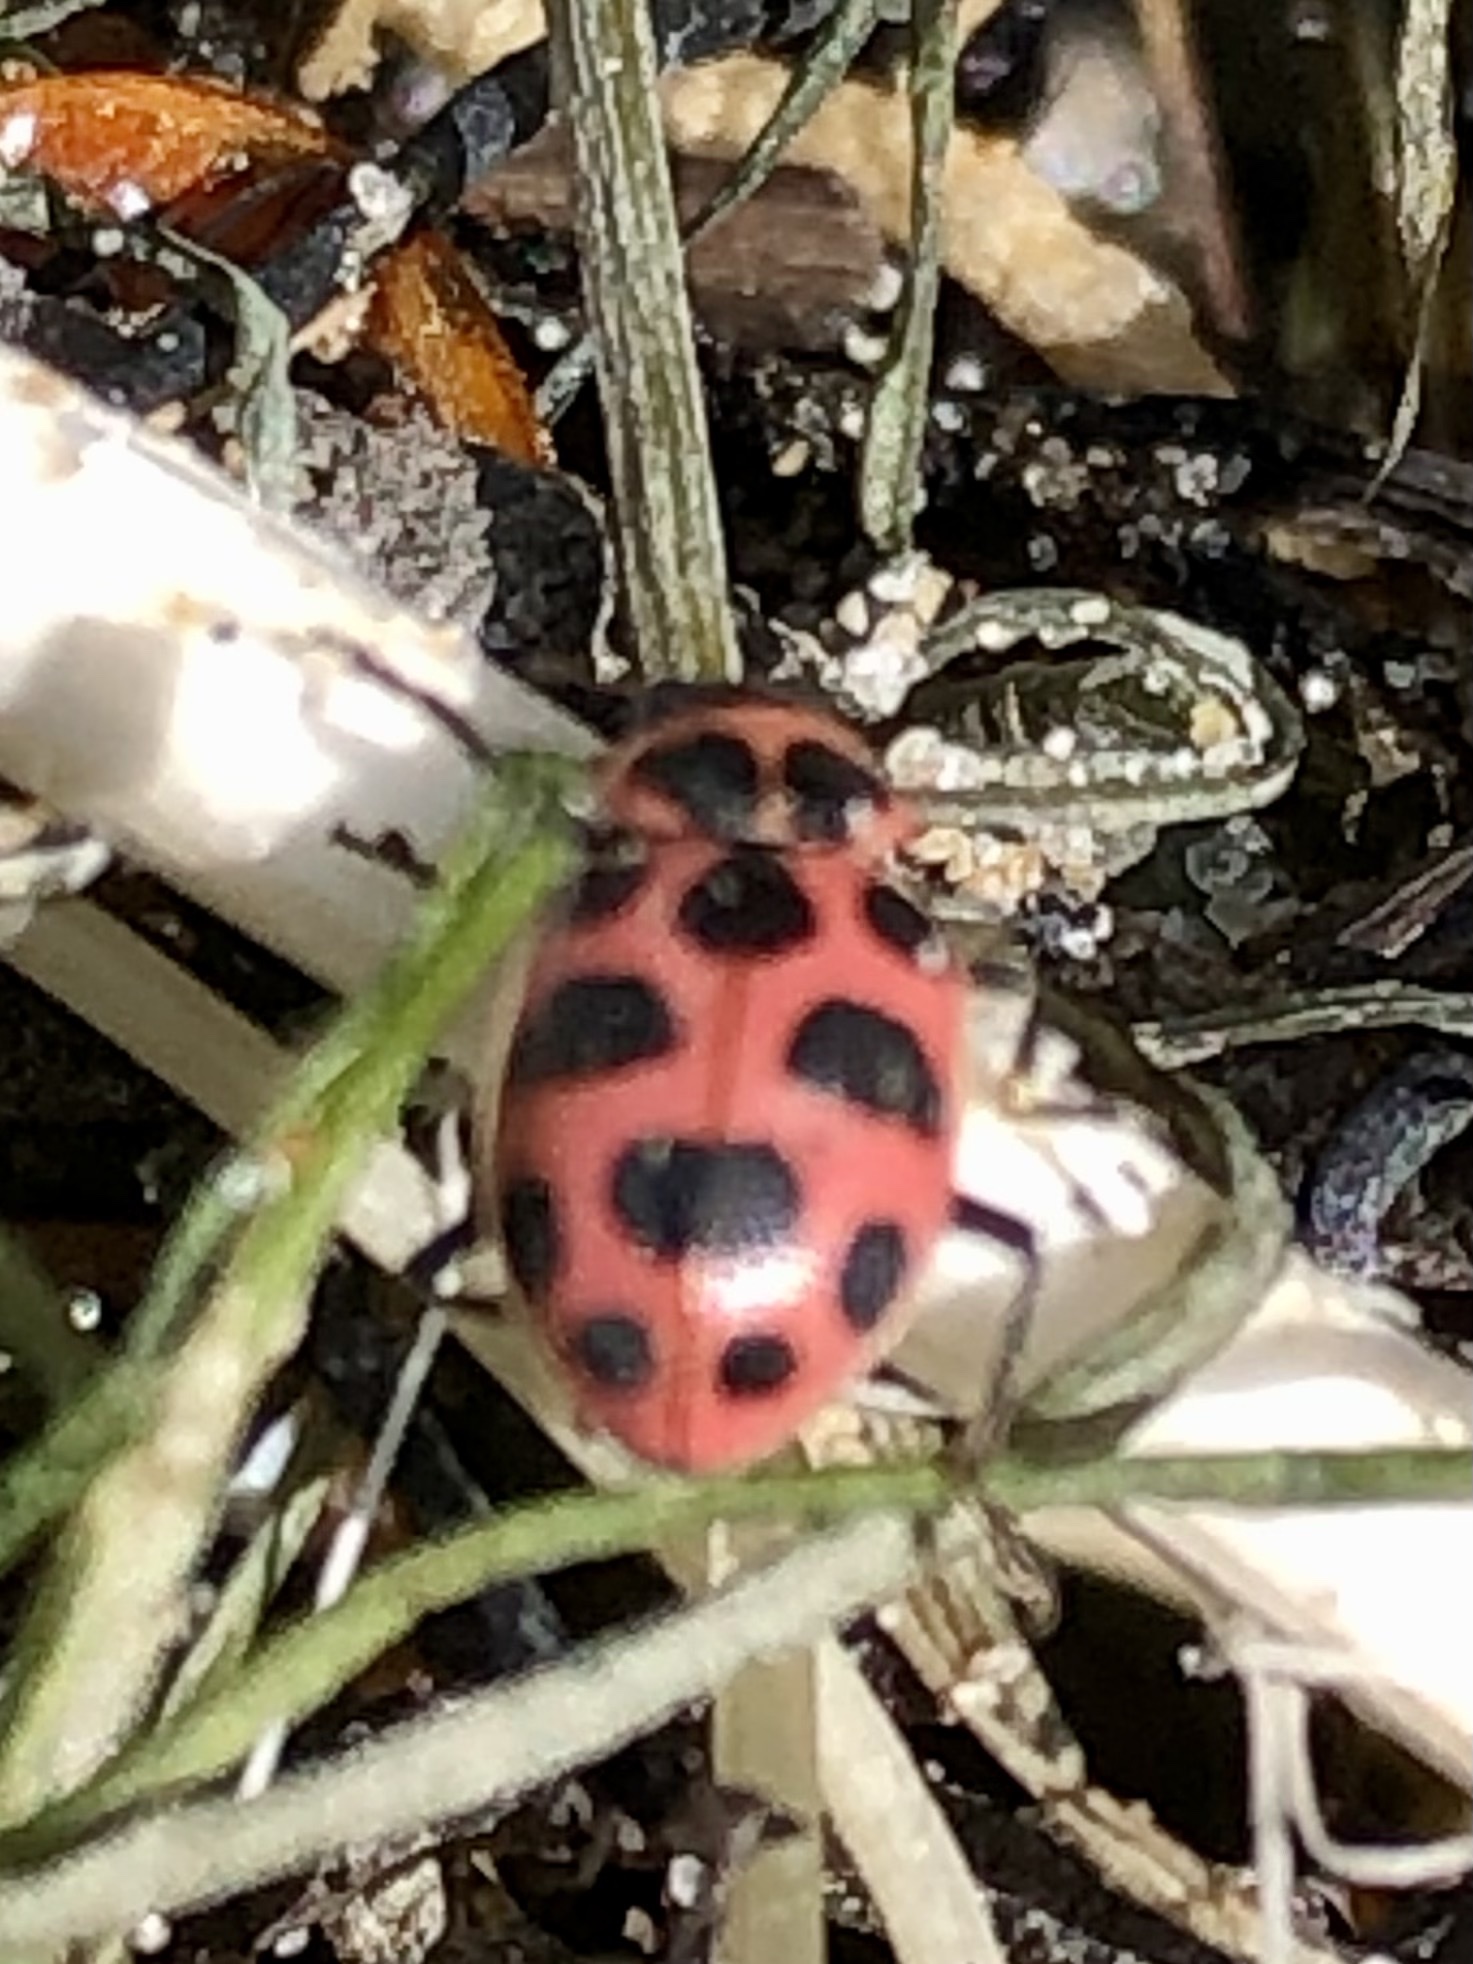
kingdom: Animalia
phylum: Arthropoda
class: Insecta
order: Coleoptera
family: Coccinellidae
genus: Coleomegilla
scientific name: Coleomegilla maculata
